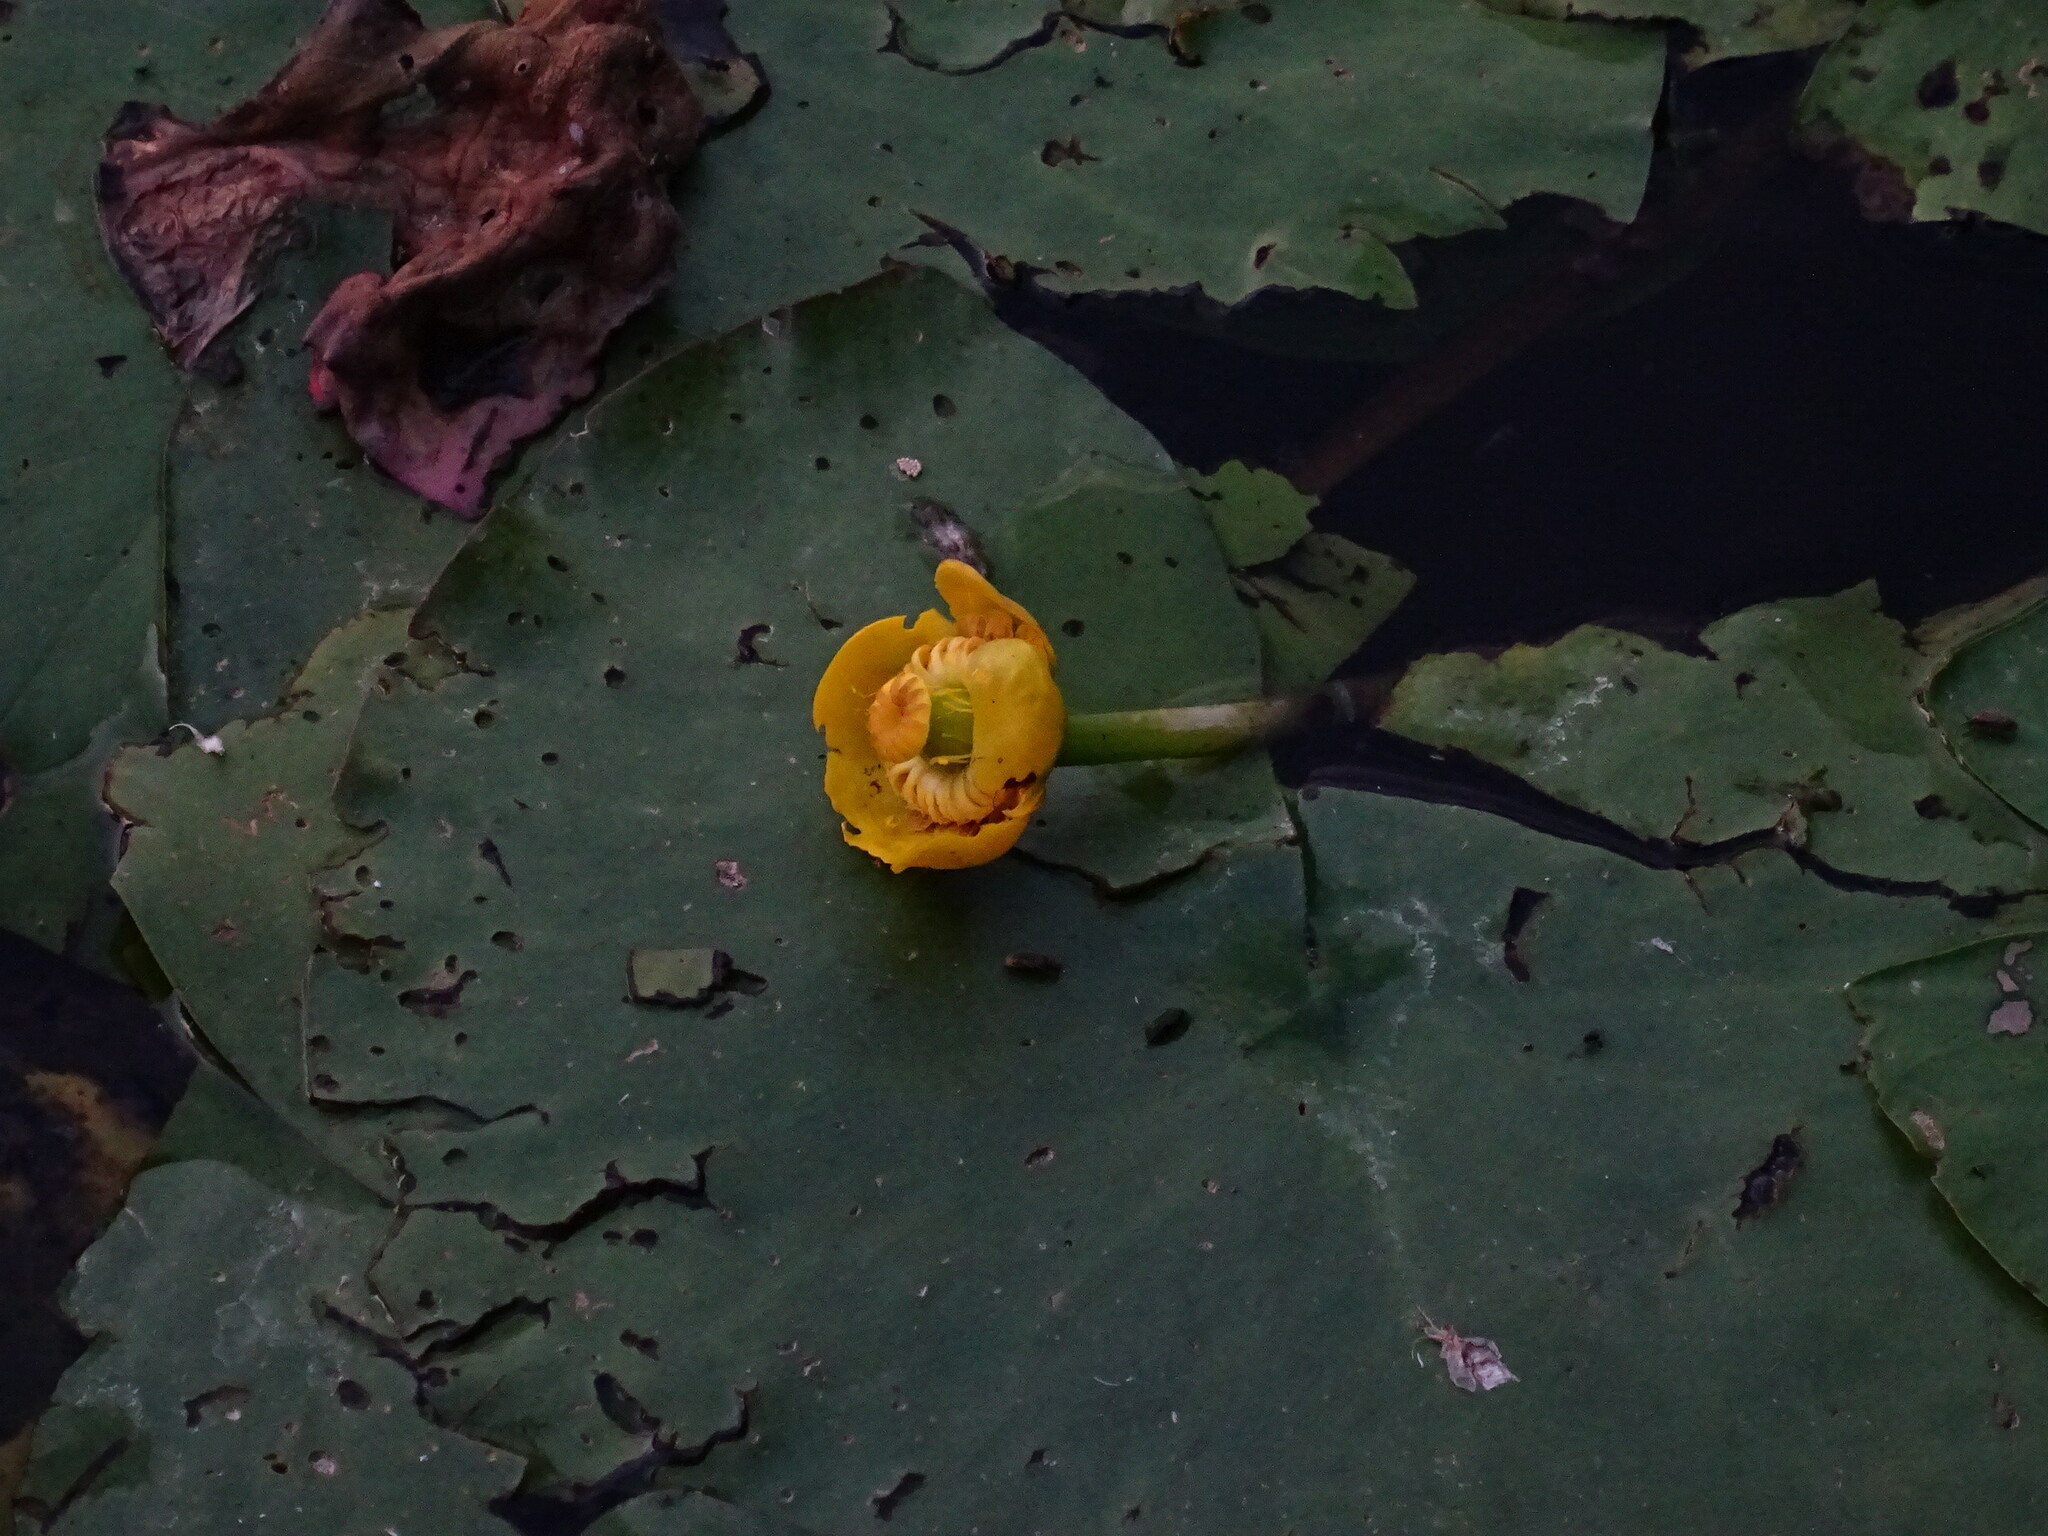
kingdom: Plantae
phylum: Tracheophyta
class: Magnoliopsida
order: Nymphaeales
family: Nymphaeaceae
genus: Nuphar
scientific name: Nuphar lutea
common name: Yellow water-lily
